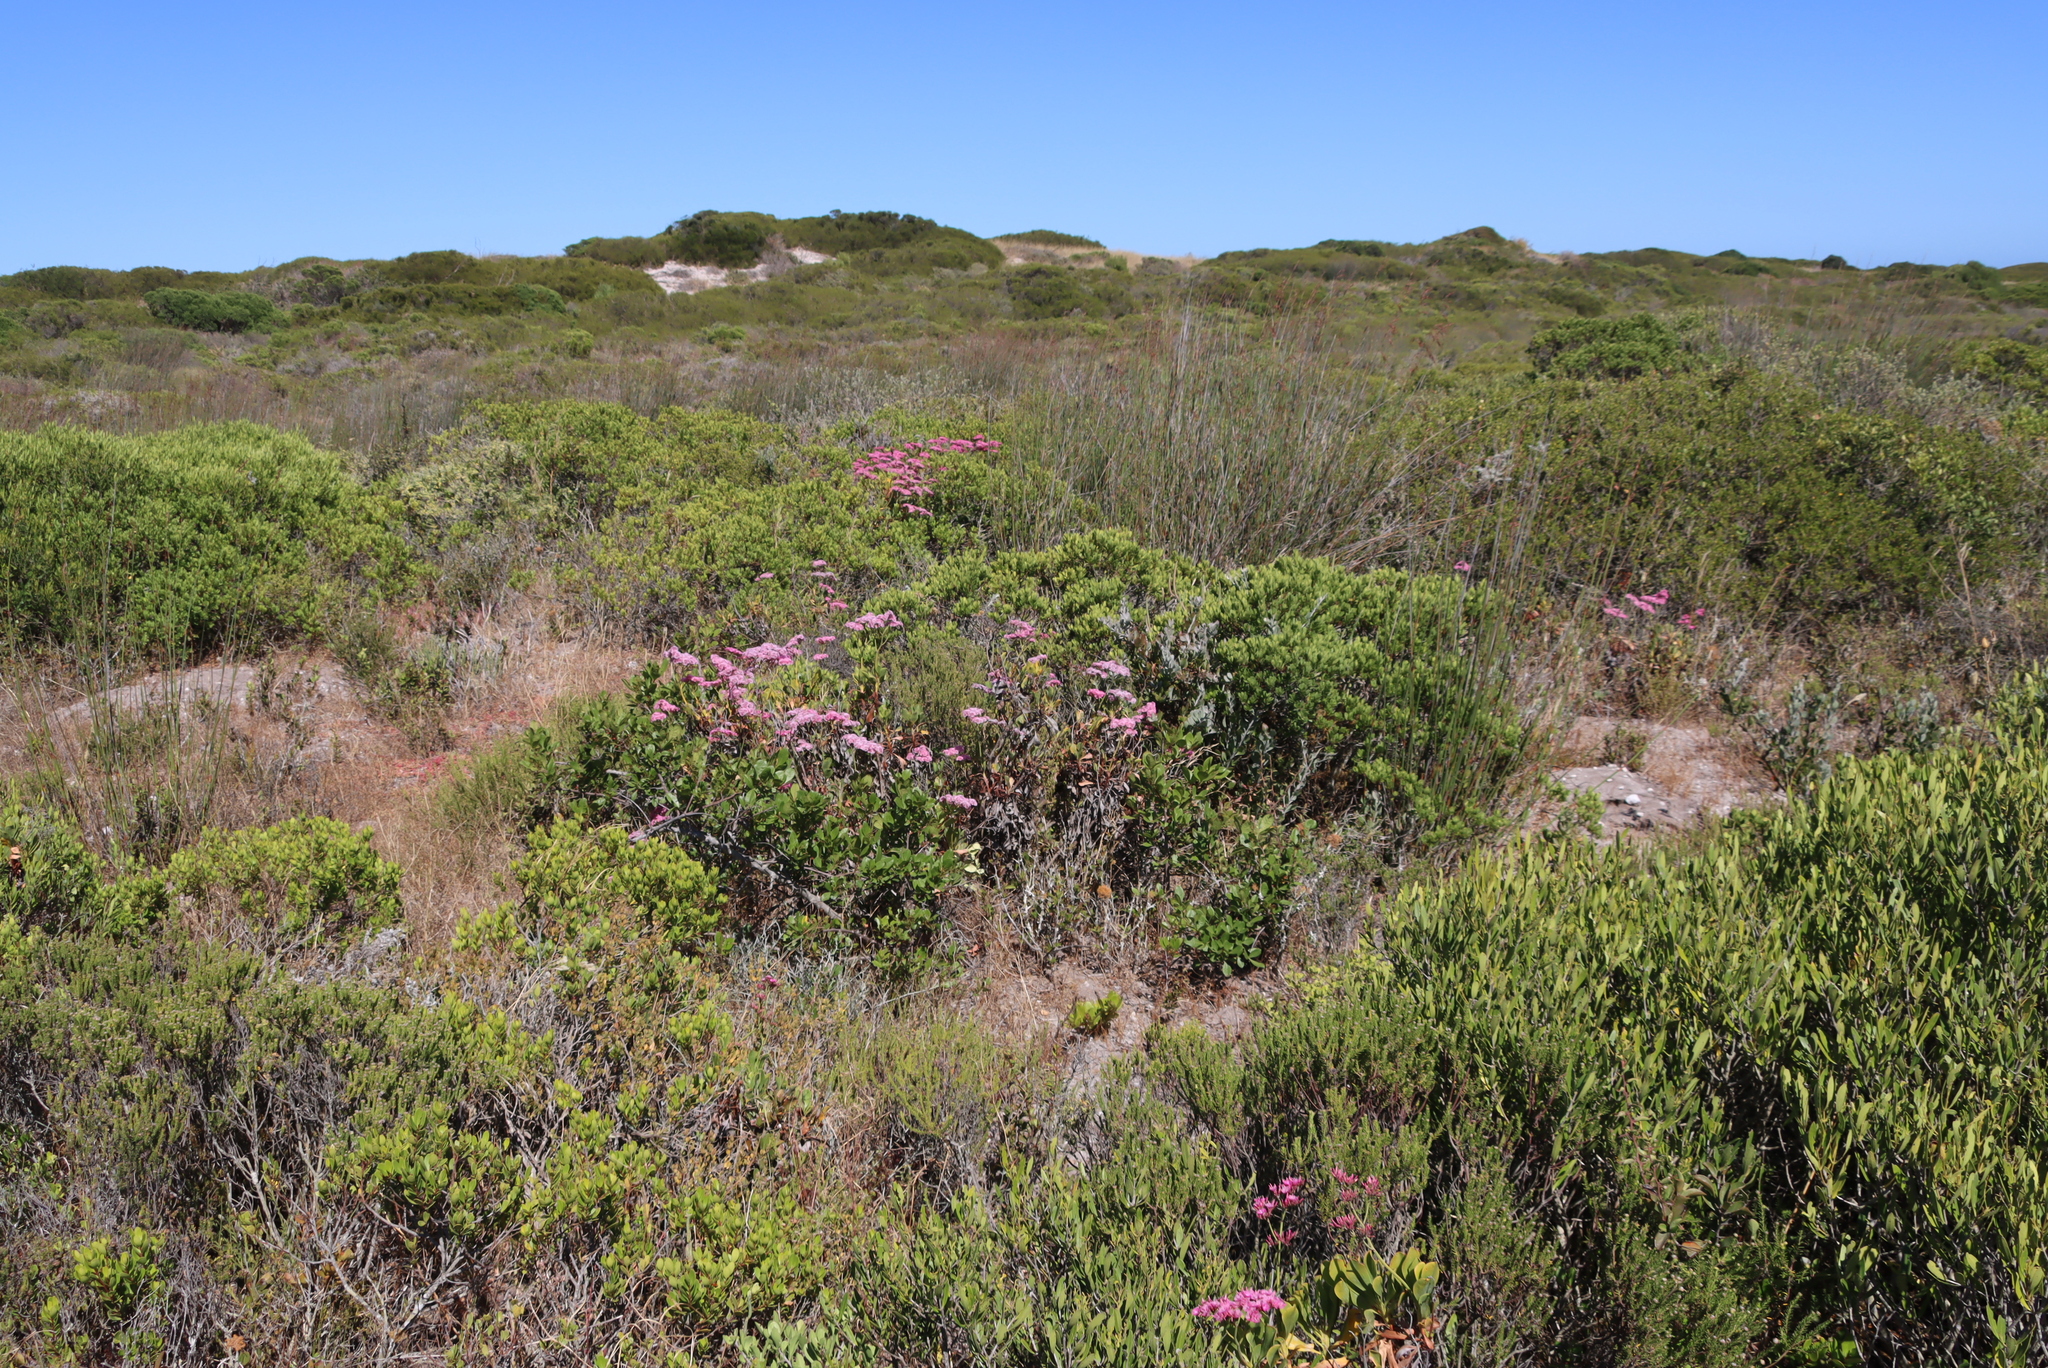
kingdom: Plantae
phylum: Tracheophyta
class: Magnoliopsida
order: Caryophyllales
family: Plumbaginaceae
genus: Limonium
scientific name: Limonium peregrinum
